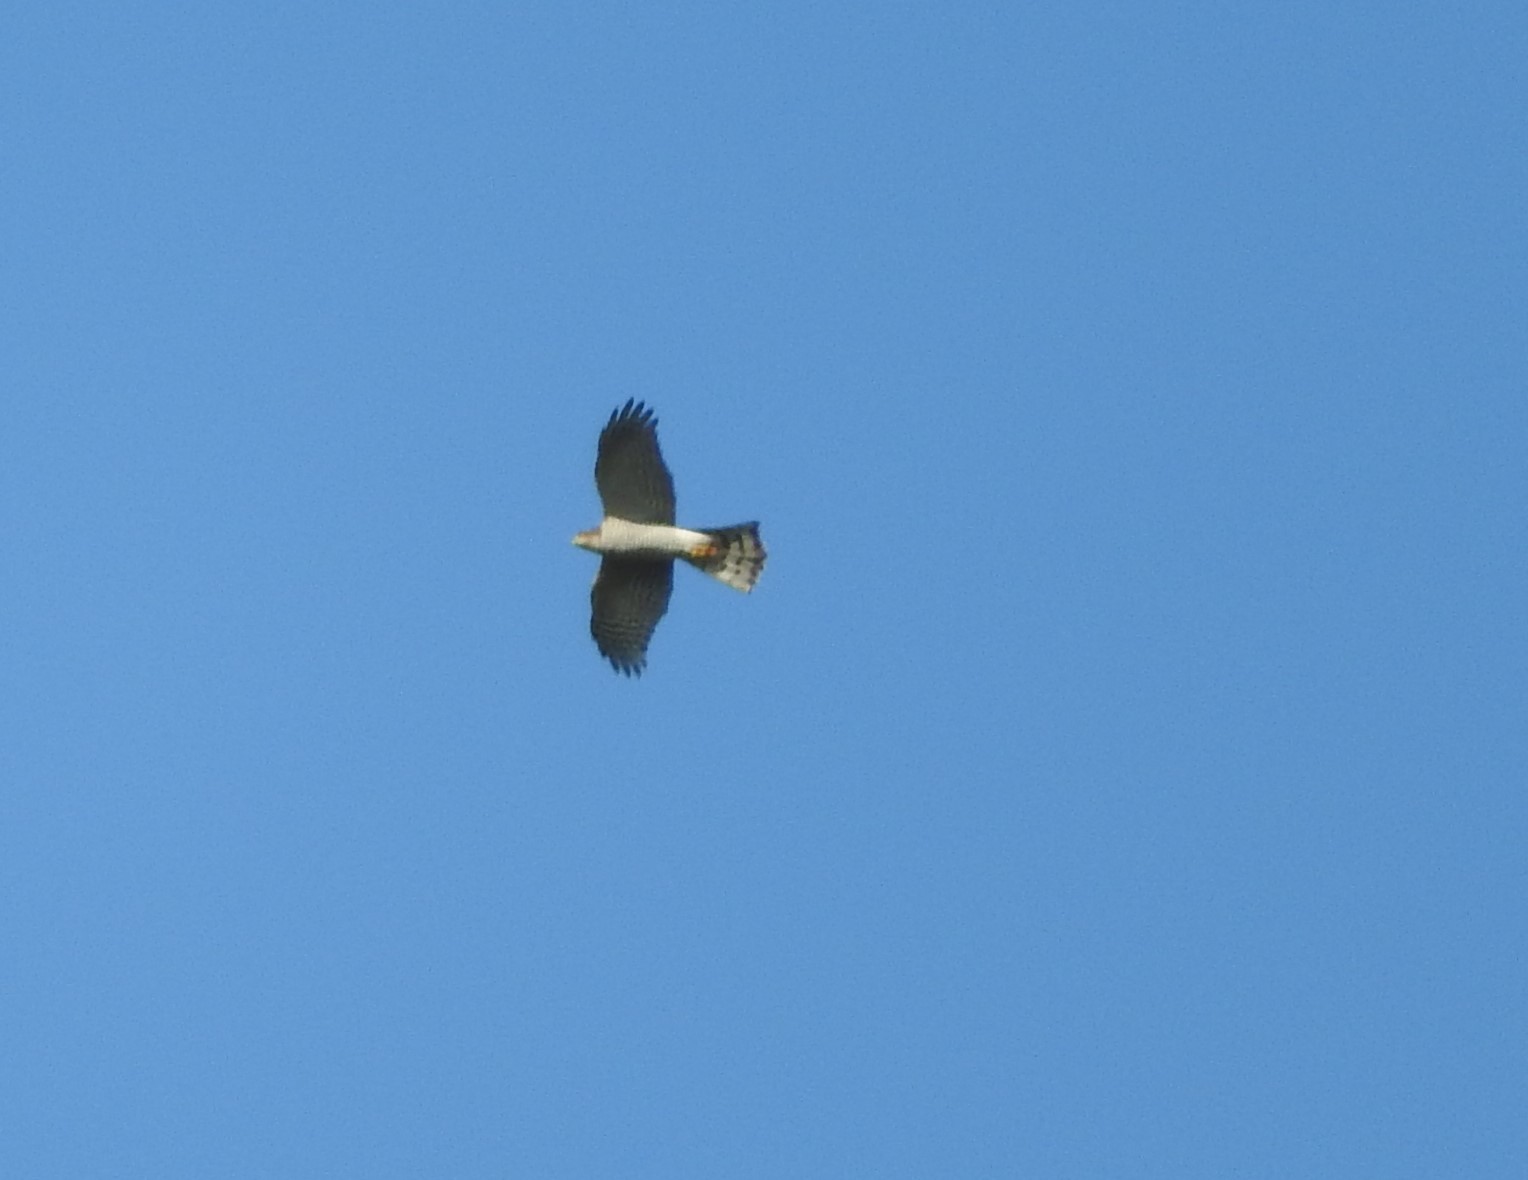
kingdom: Animalia
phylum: Chordata
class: Aves
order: Accipitriformes
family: Accipitridae
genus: Accipiter
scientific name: Accipiter nisus
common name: Eurasian sparrowhawk
